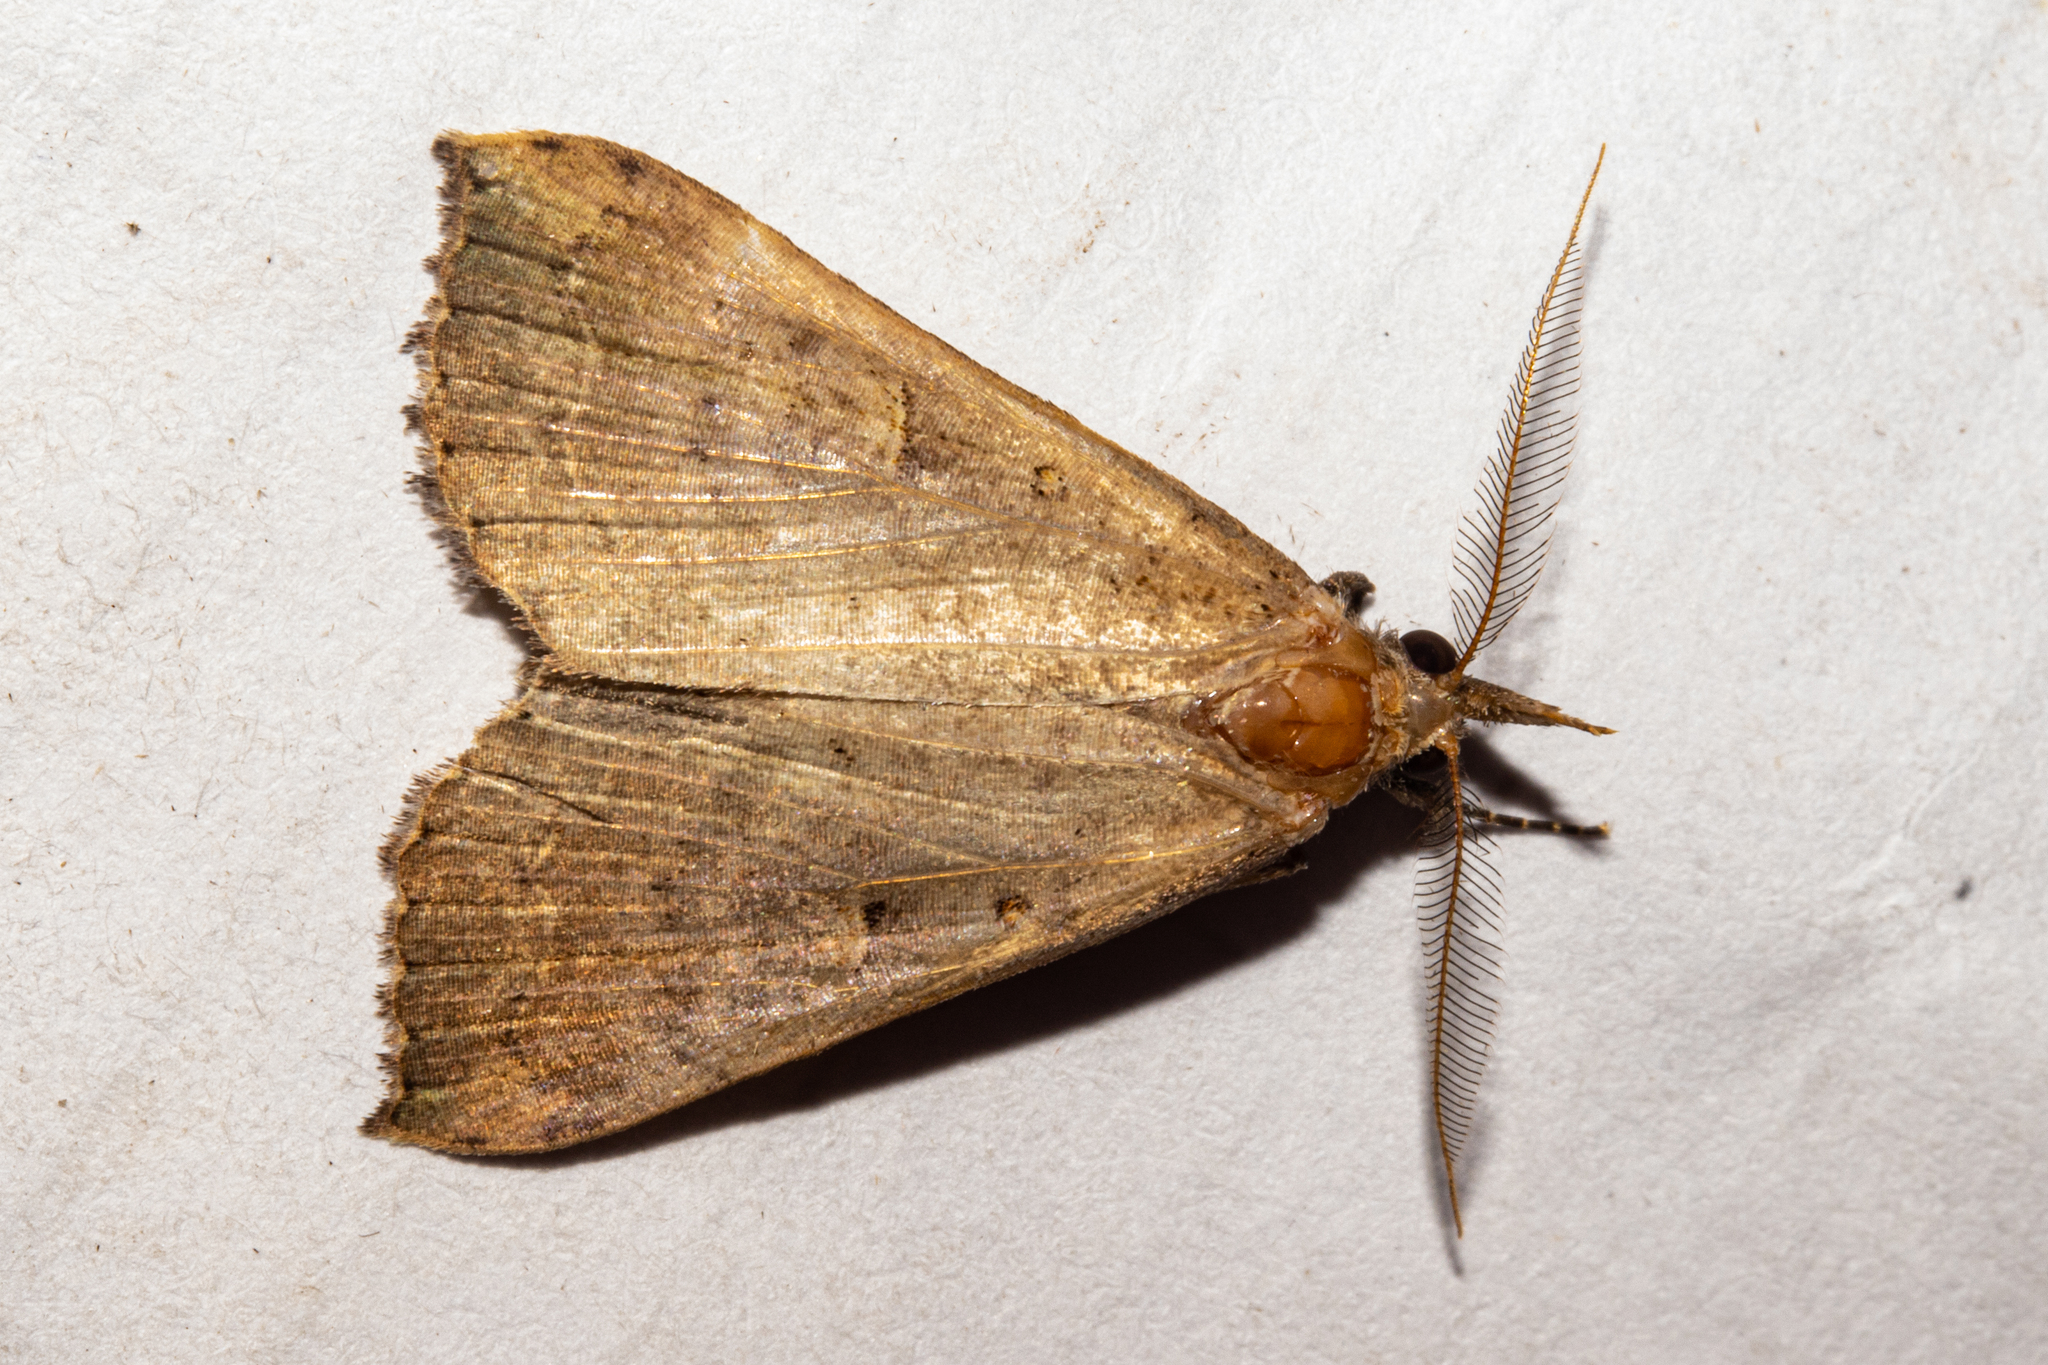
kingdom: Animalia
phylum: Arthropoda
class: Insecta
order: Lepidoptera
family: Erebidae
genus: Rhapsa
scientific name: Rhapsa scotosialis
